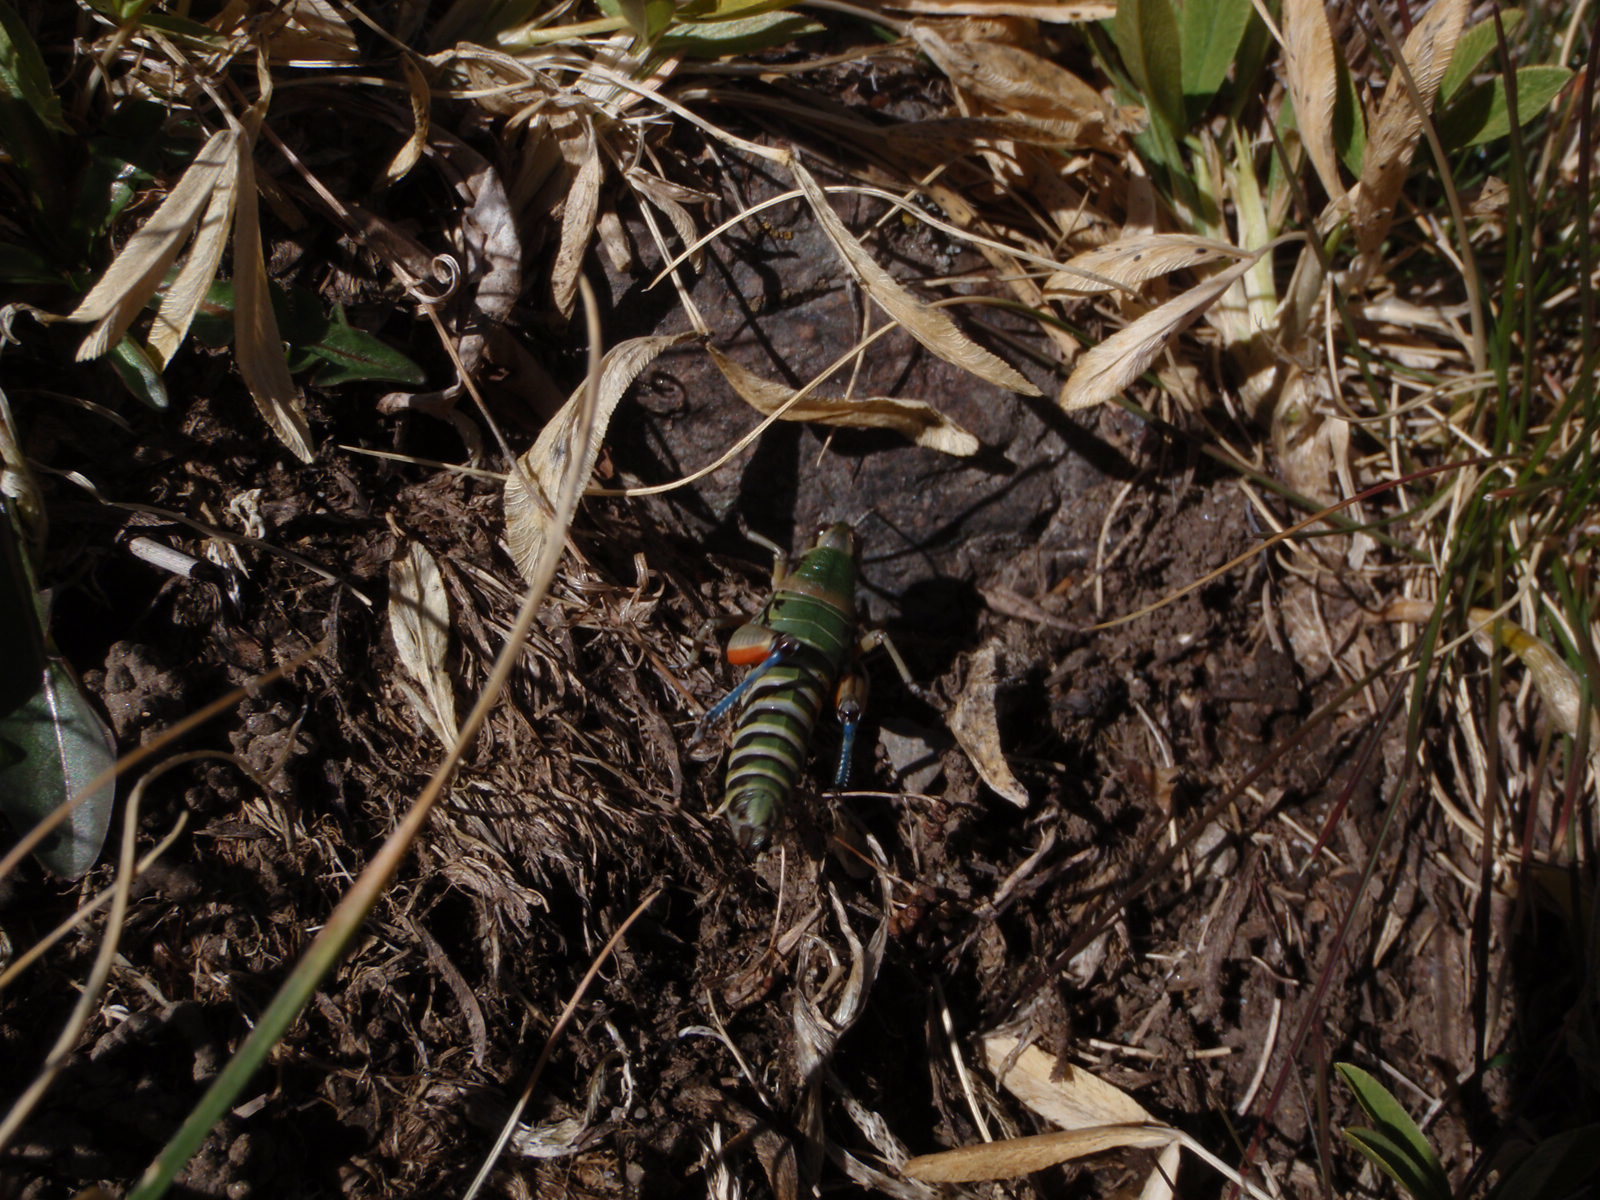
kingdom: Animalia
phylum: Arthropoda
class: Insecta
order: Orthoptera
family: Acrididae
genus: Cophopodisma
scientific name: Cophopodisma pyrenaea
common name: Pyrenean mountain grasshopper
